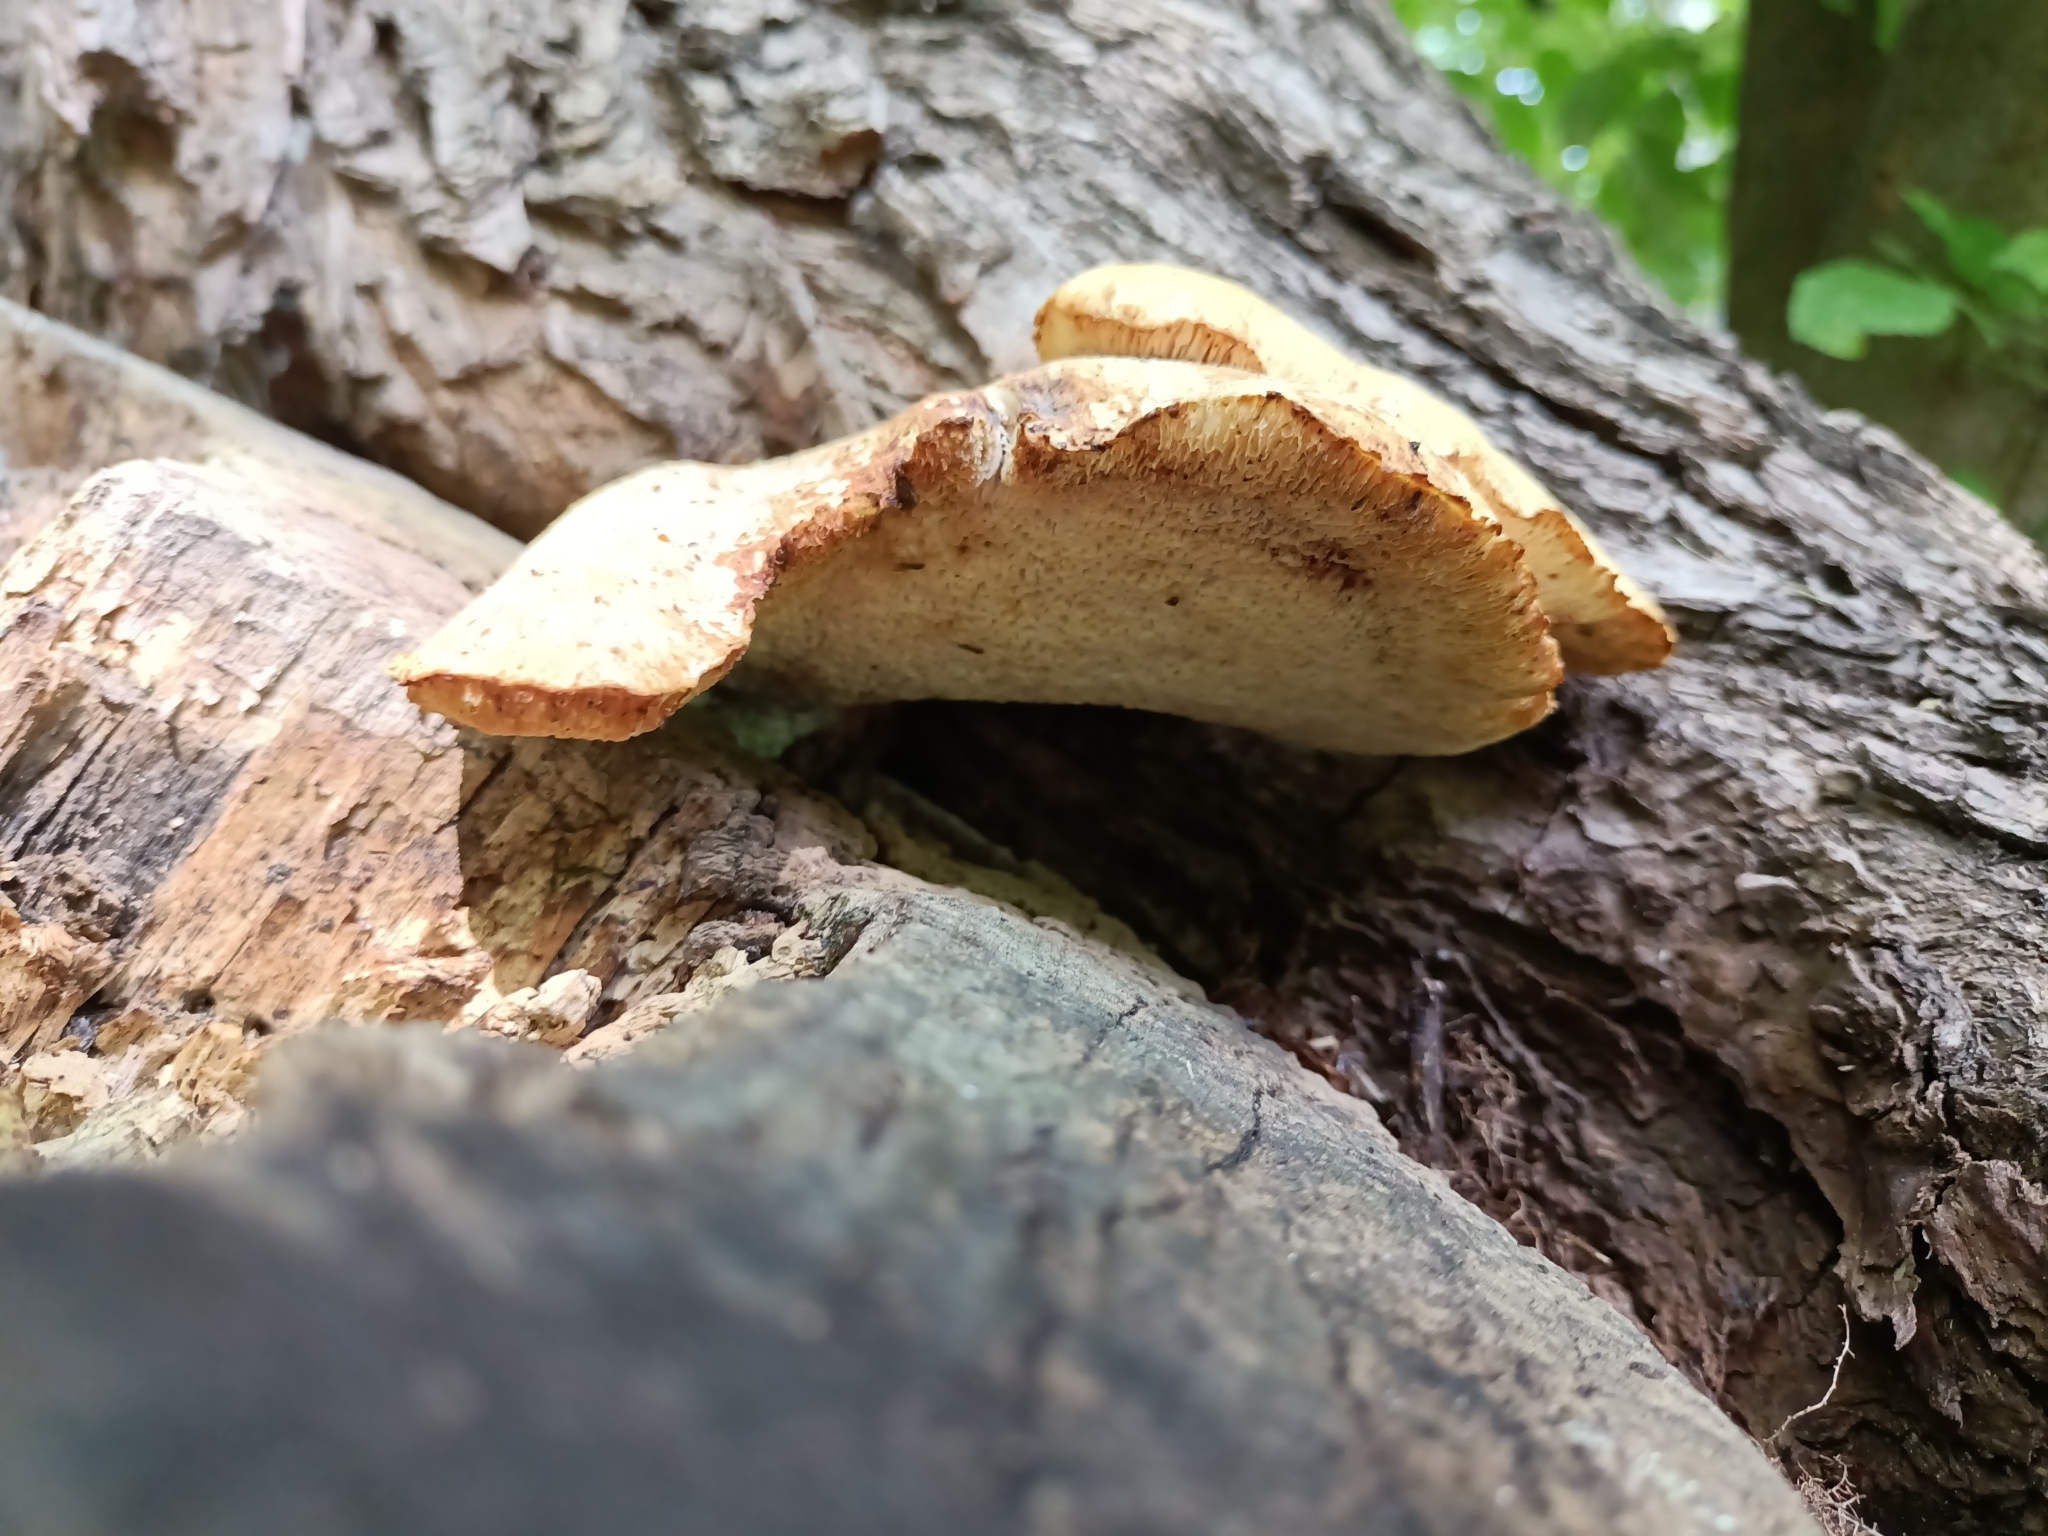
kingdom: Fungi
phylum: Basidiomycota
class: Agaricomycetes
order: Polyporales
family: Polyporaceae
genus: Cerioporus
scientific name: Cerioporus squamosus
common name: Dryad's saddle
